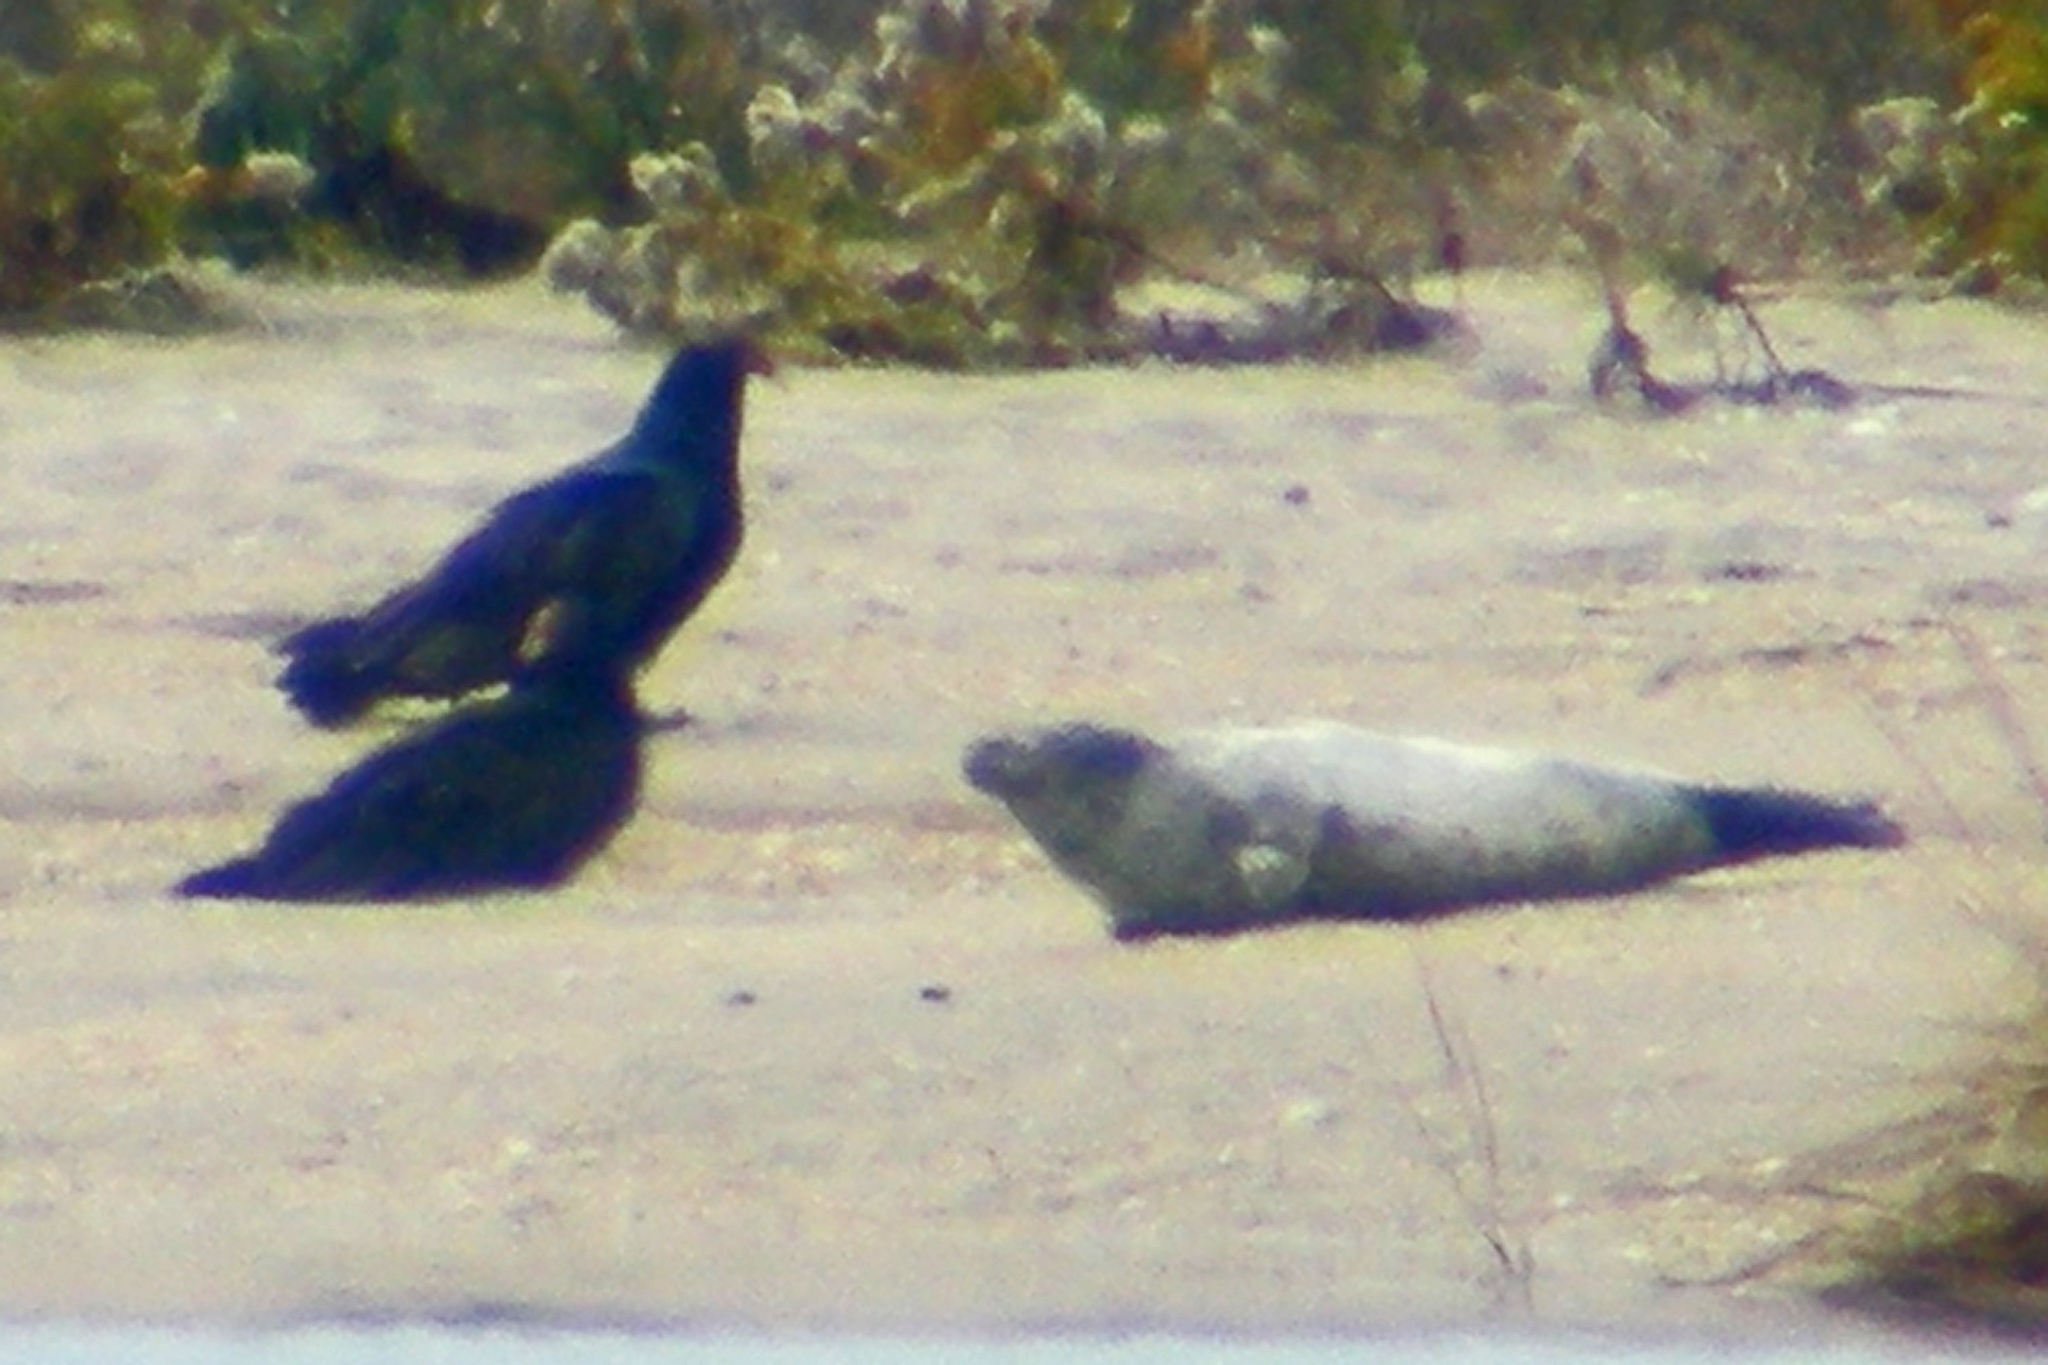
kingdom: Animalia
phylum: Chordata
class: Aves
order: Accipitriformes
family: Cathartidae
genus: Cathartes
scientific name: Cathartes aura
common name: Turkey vulture
